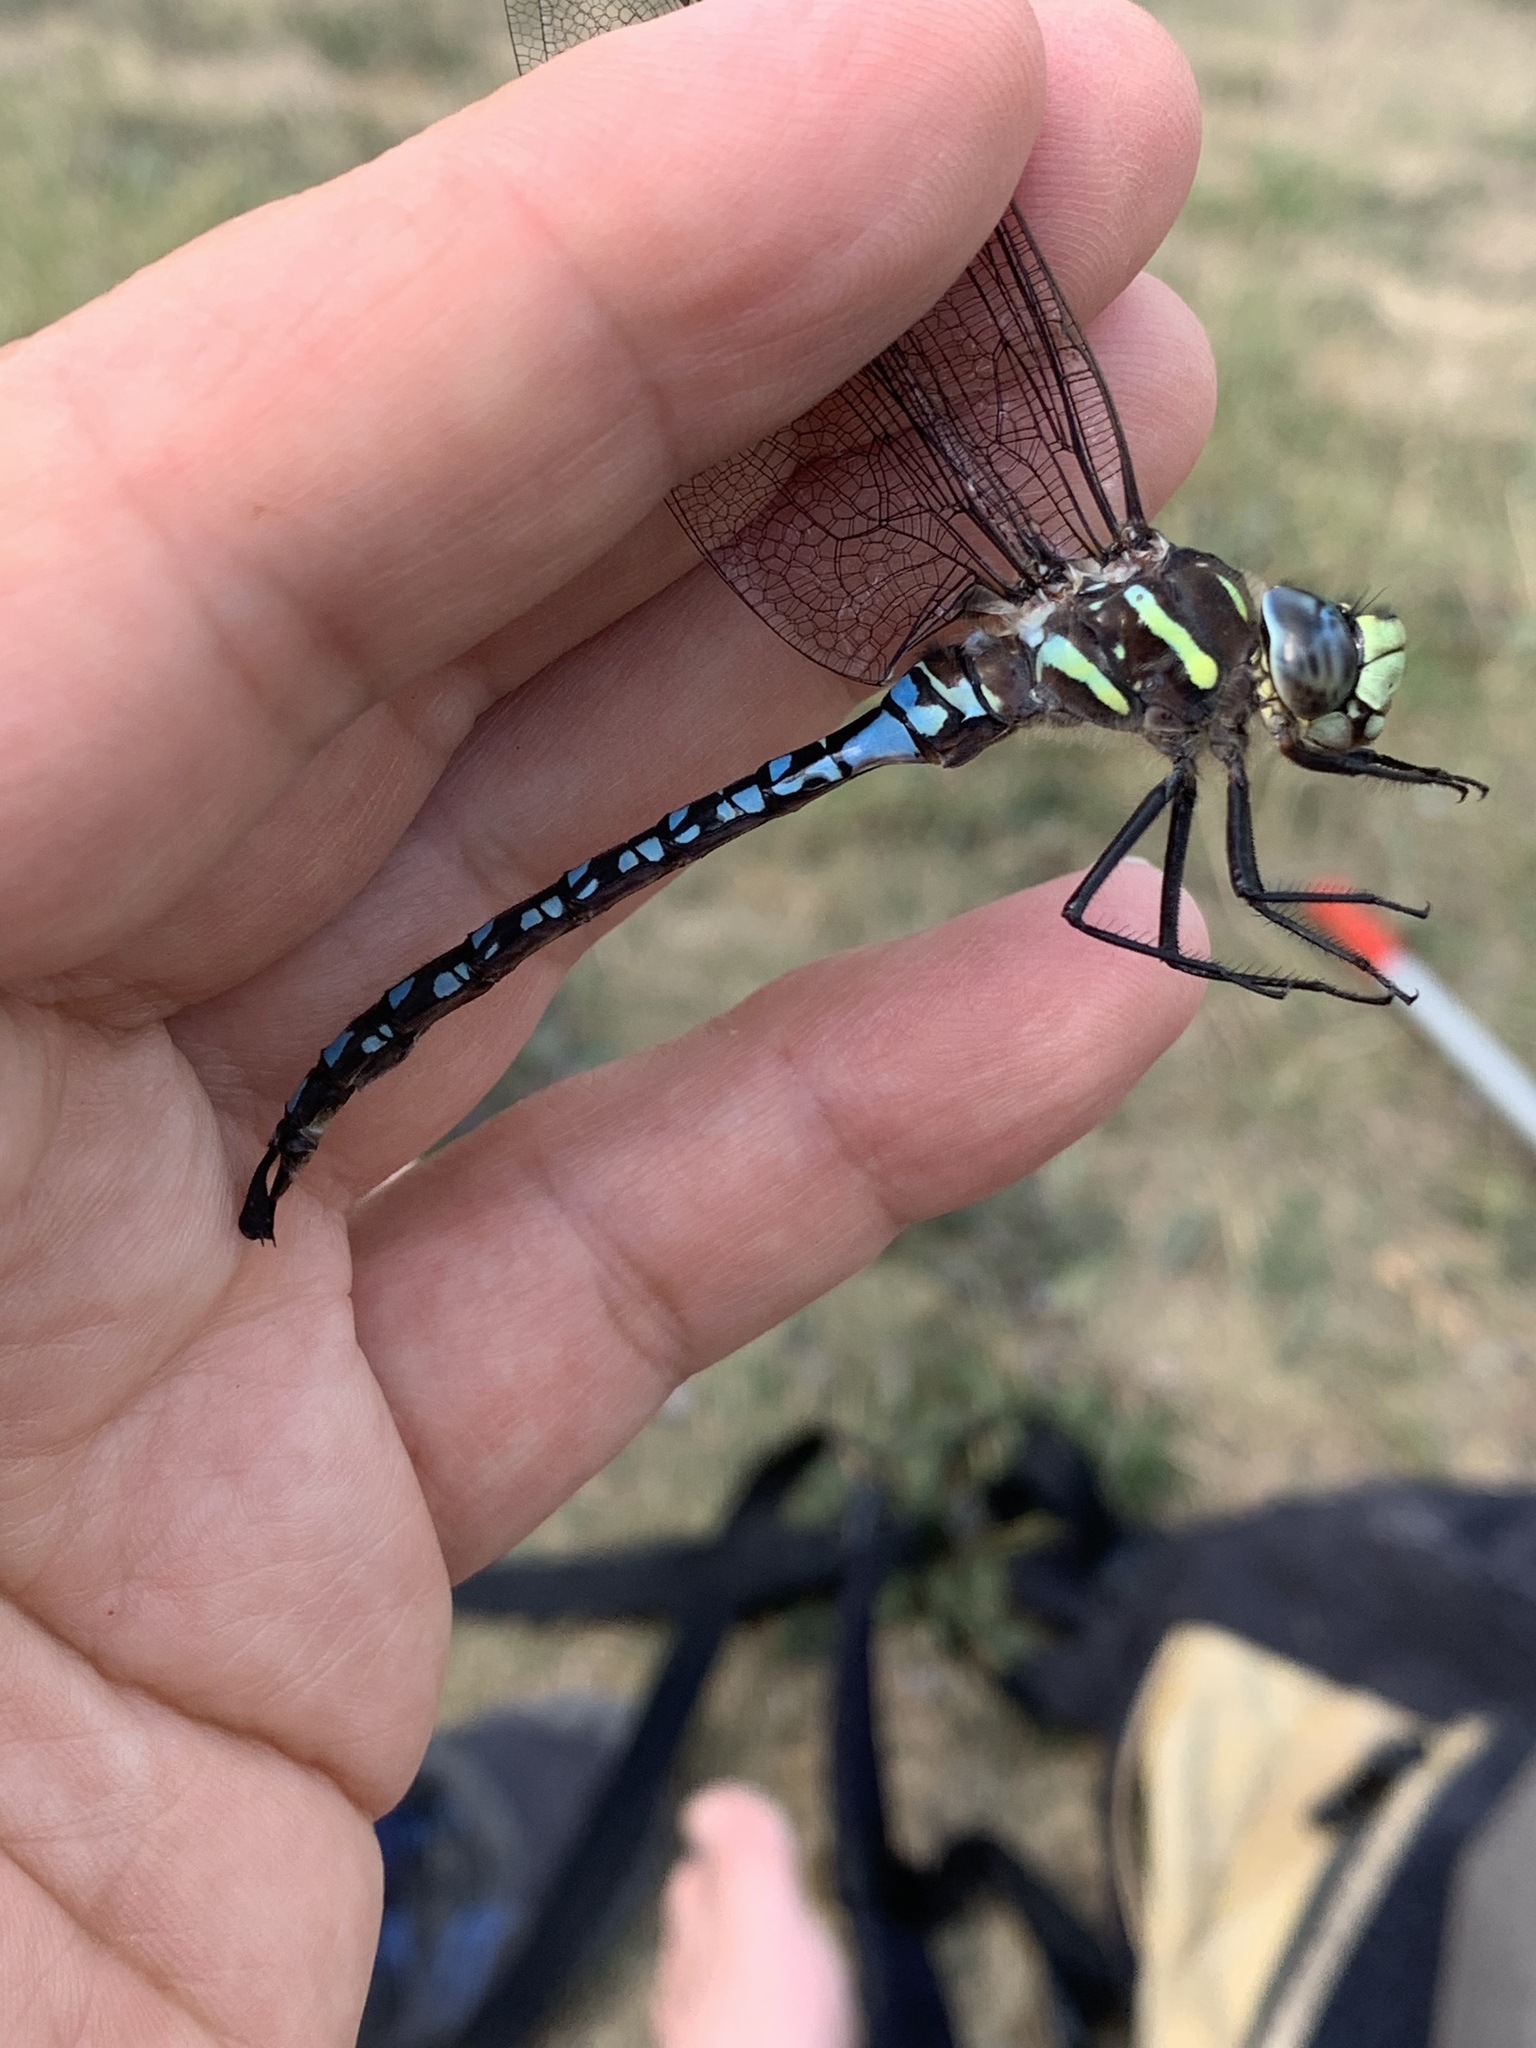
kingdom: Animalia
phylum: Arthropoda
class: Insecta
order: Odonata
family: Aeshnidae
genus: Aeshna
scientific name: Aeshna palmata
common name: Paddle-tailed darner
